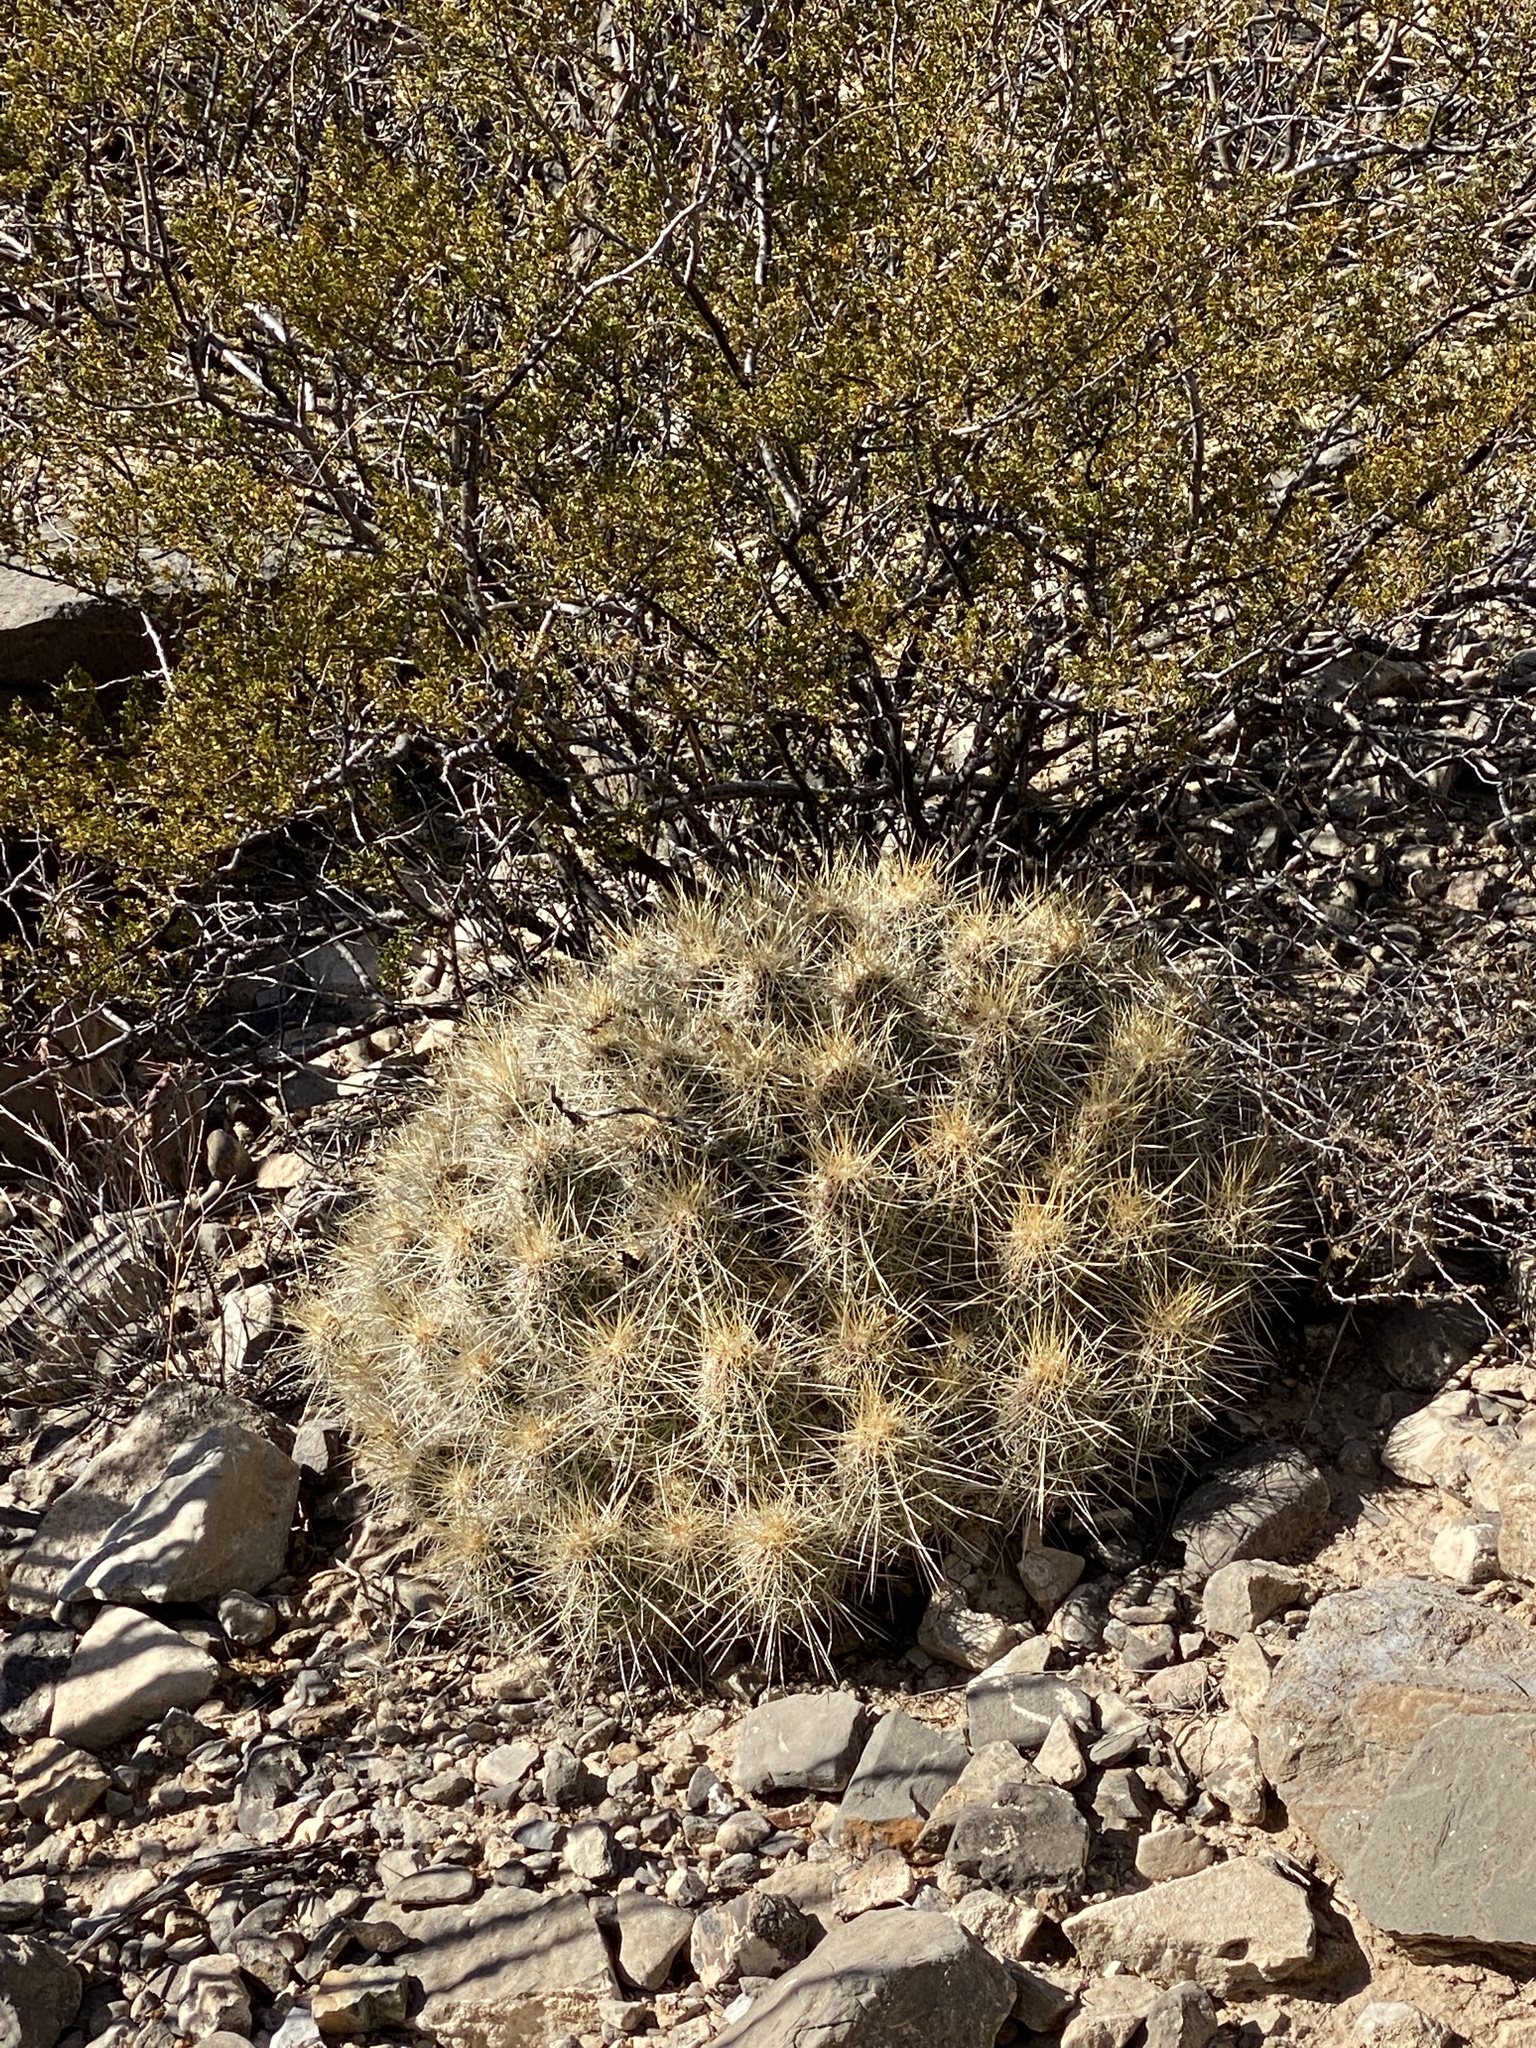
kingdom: Plantae
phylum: Tracheophyta
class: Magnoliopsida
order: Caryophyllales
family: Cactaceae
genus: Echinocereus
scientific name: Echinocereus stramineus
